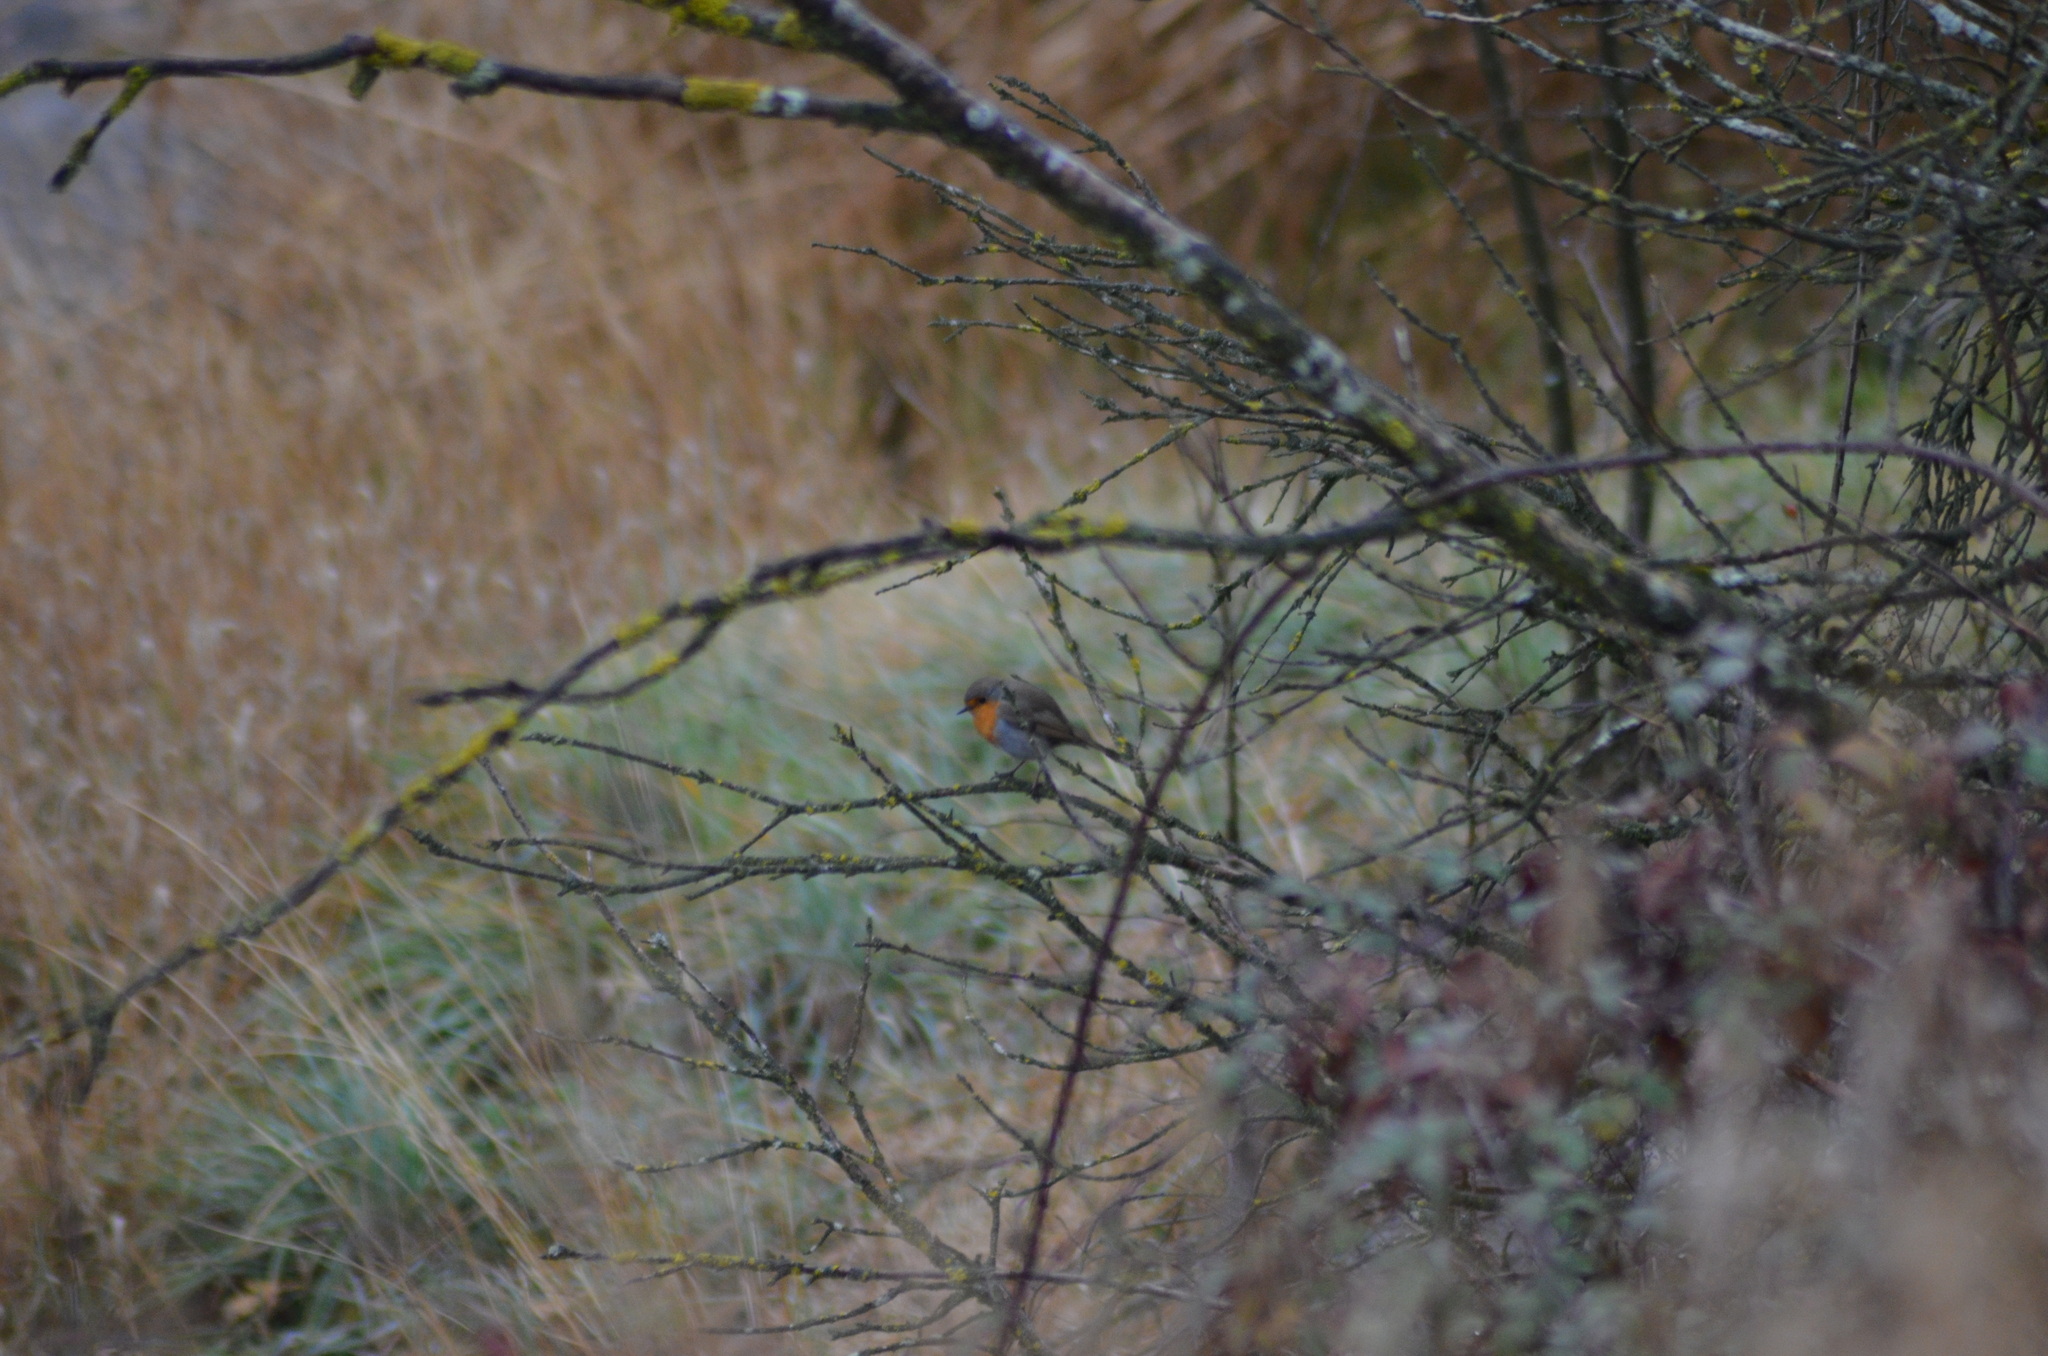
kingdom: Animalia
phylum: Chordata
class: Aves
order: Passeriformes
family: Muscicapidae
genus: Erithacus
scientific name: Erithacus rubecula
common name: European robin
